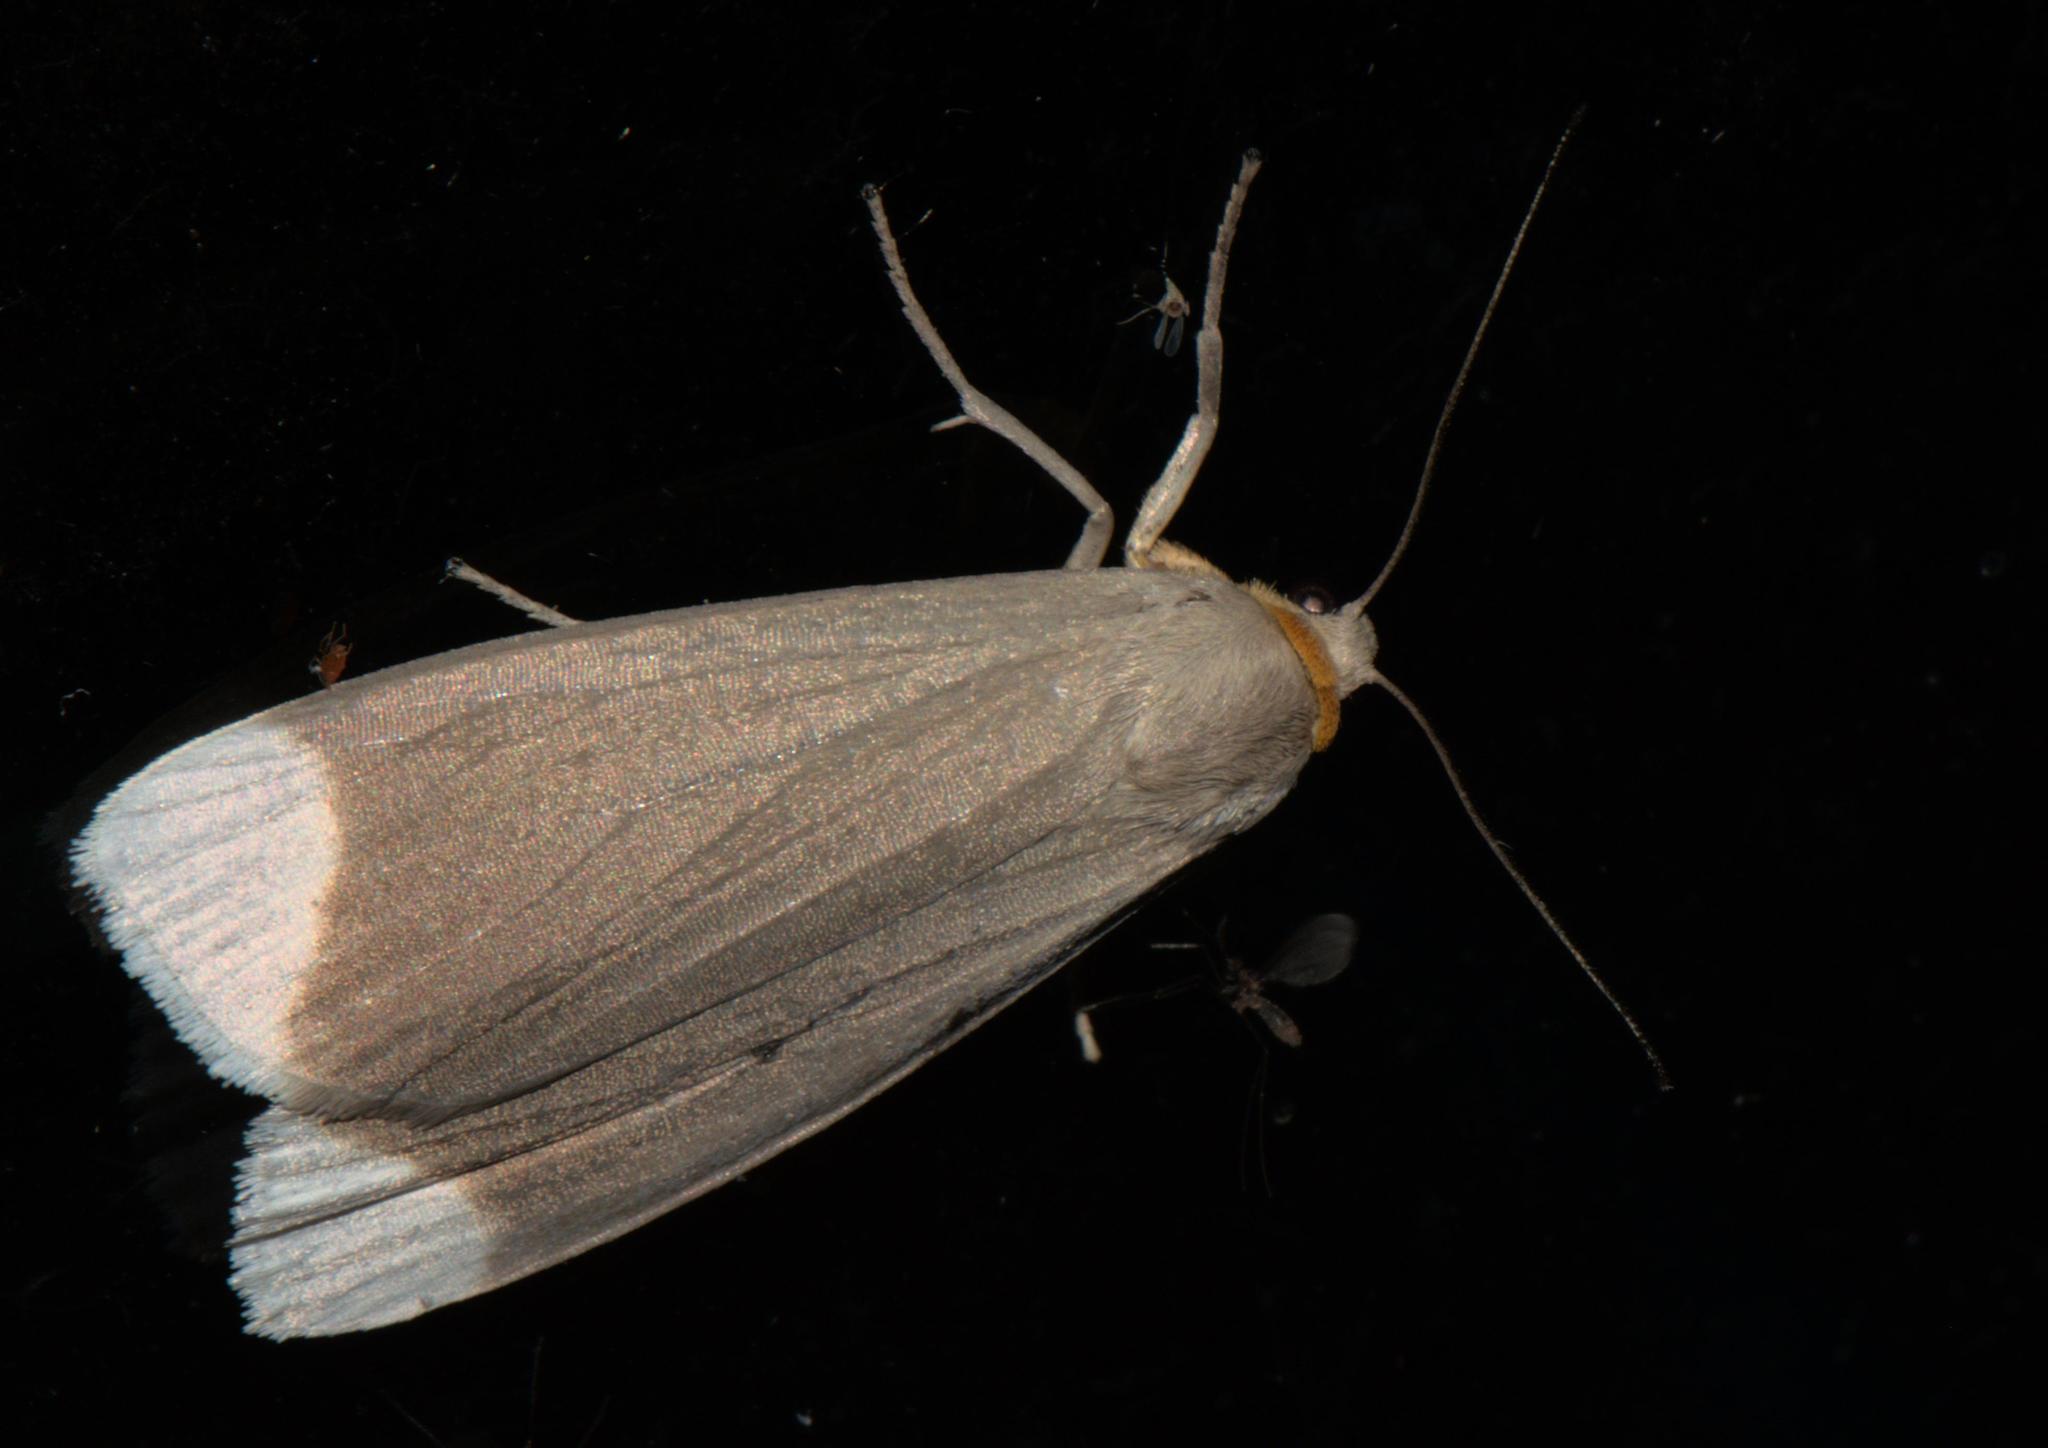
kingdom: Animalia
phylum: Arthropoda
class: Insecta
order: Lepidoptera
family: Erebidae
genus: Sidyma
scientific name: Sidyma albifinis
